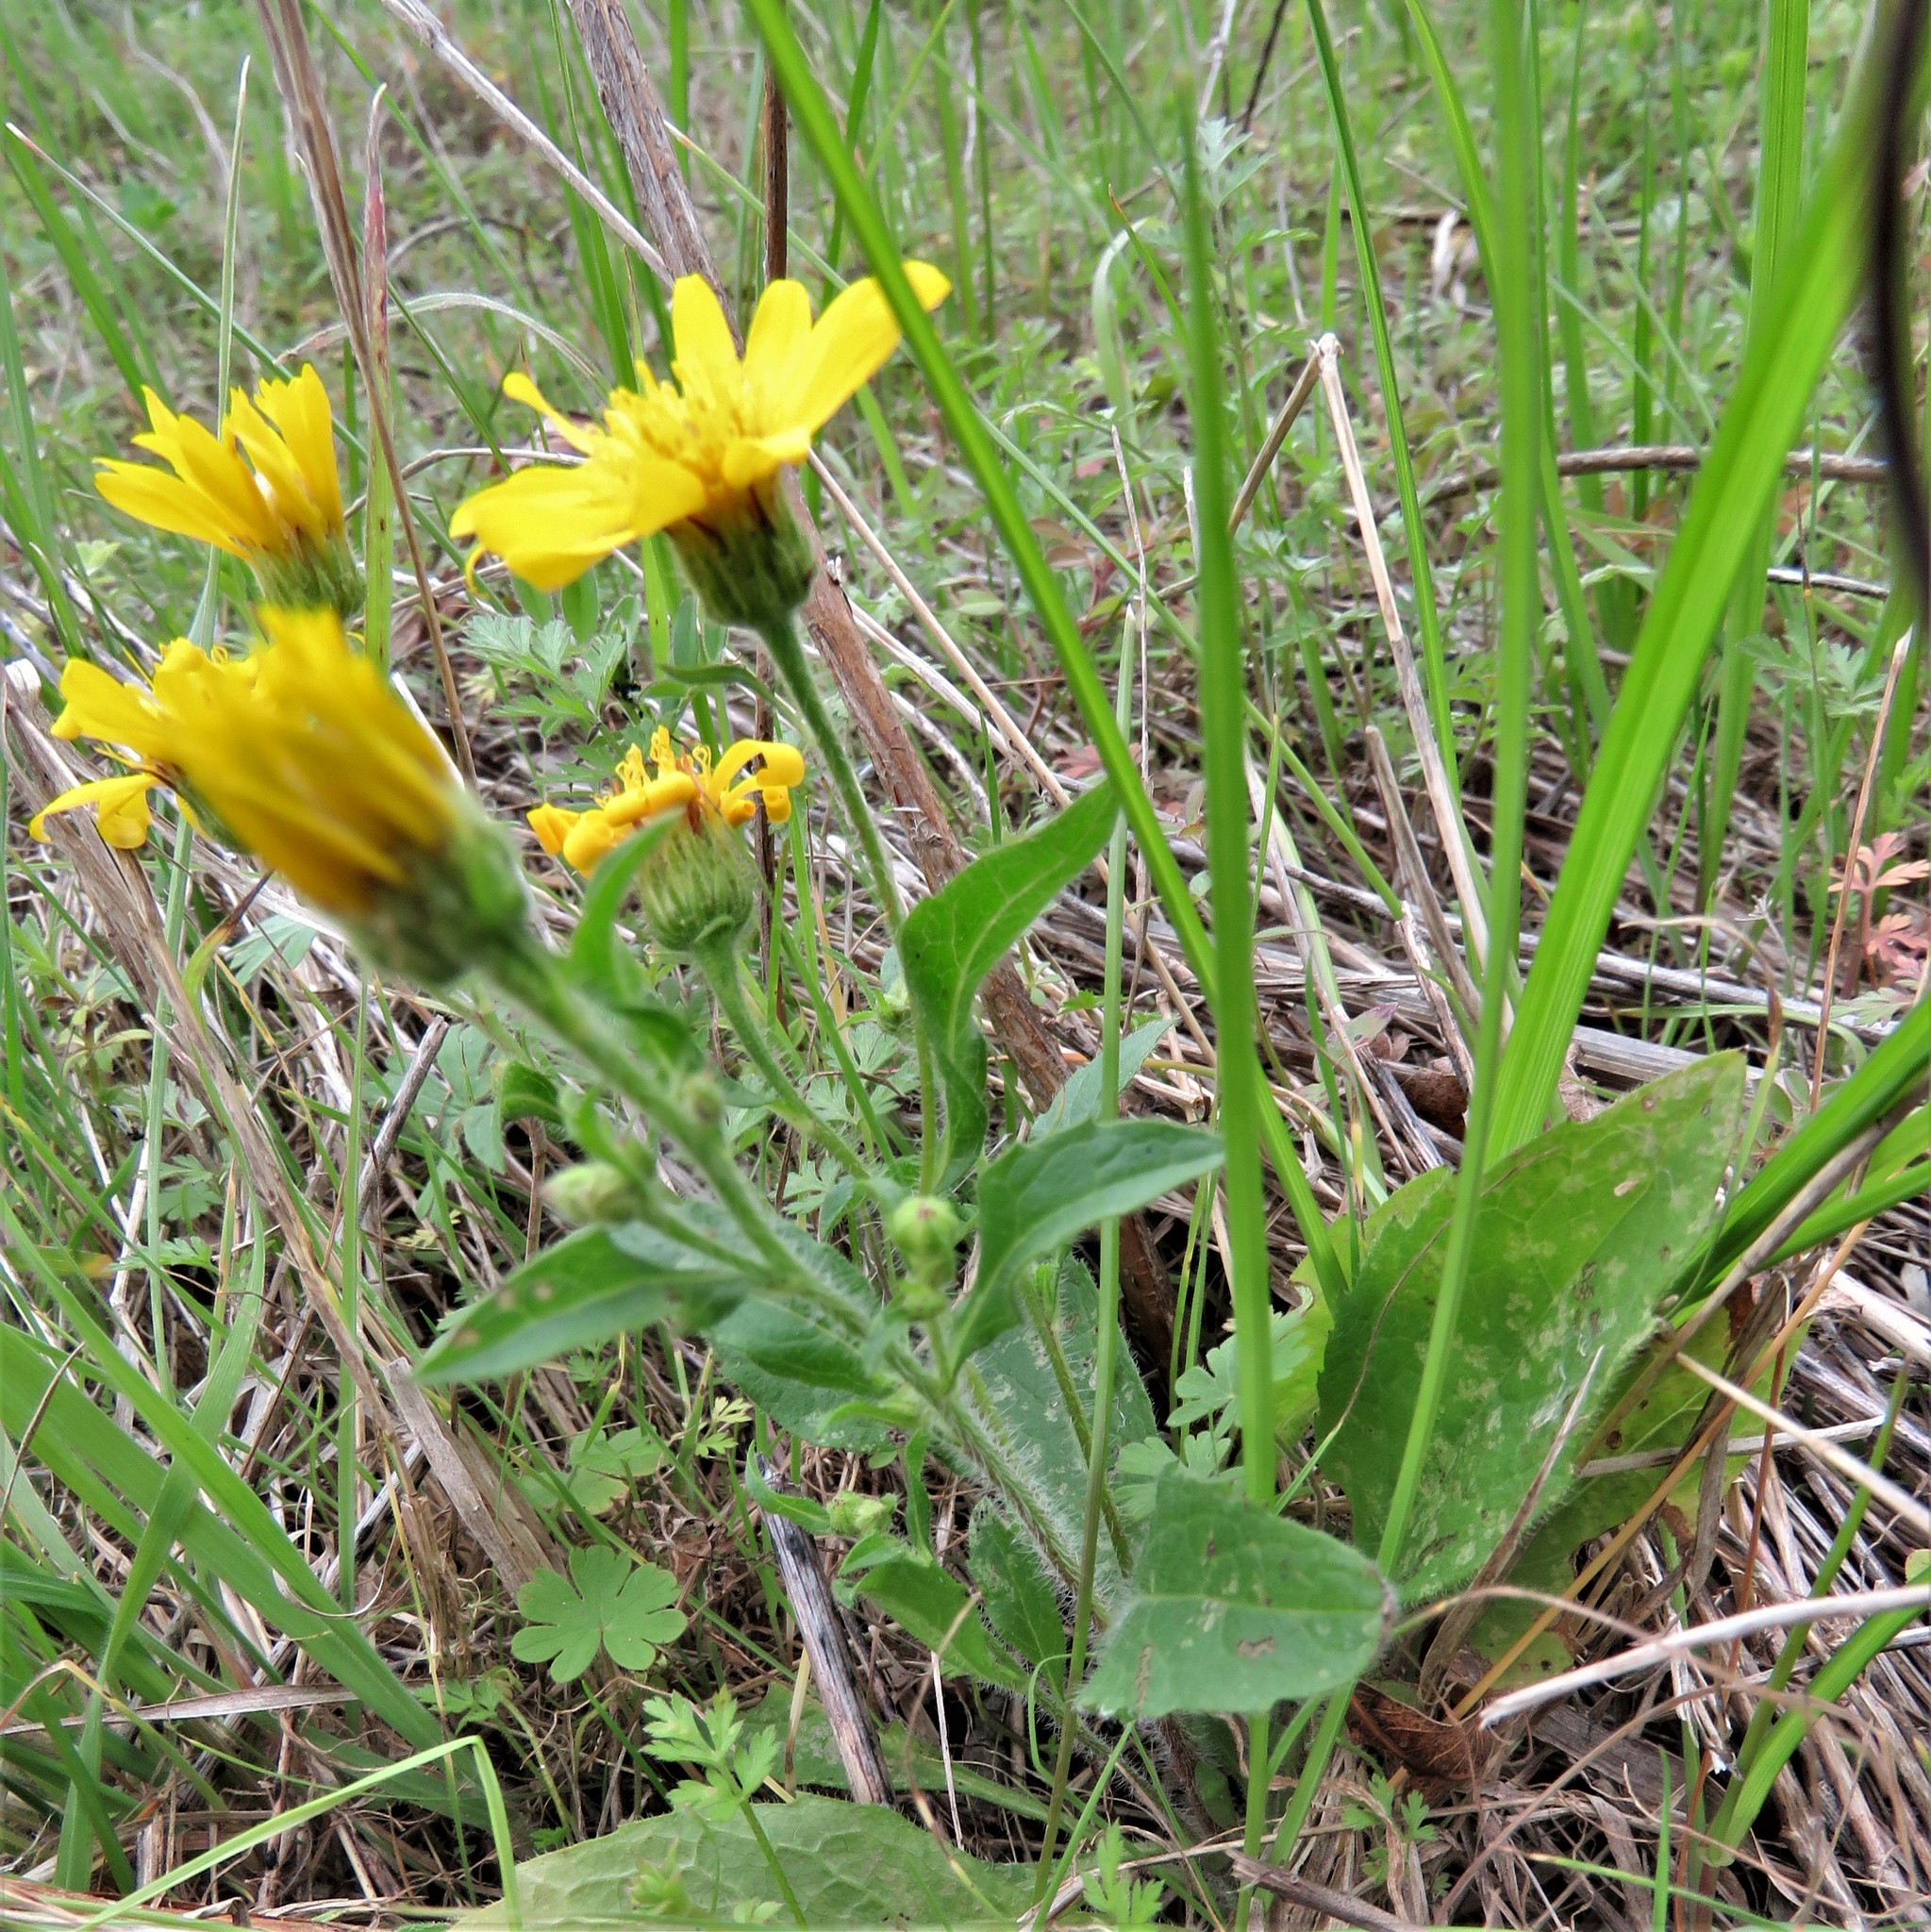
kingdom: Plantae
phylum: Tracheophyta
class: Magnoliopsida
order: Asterales
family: Asteraceae
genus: Heterotheca
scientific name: Heterotheca subaxillaris
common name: Camphorweed
